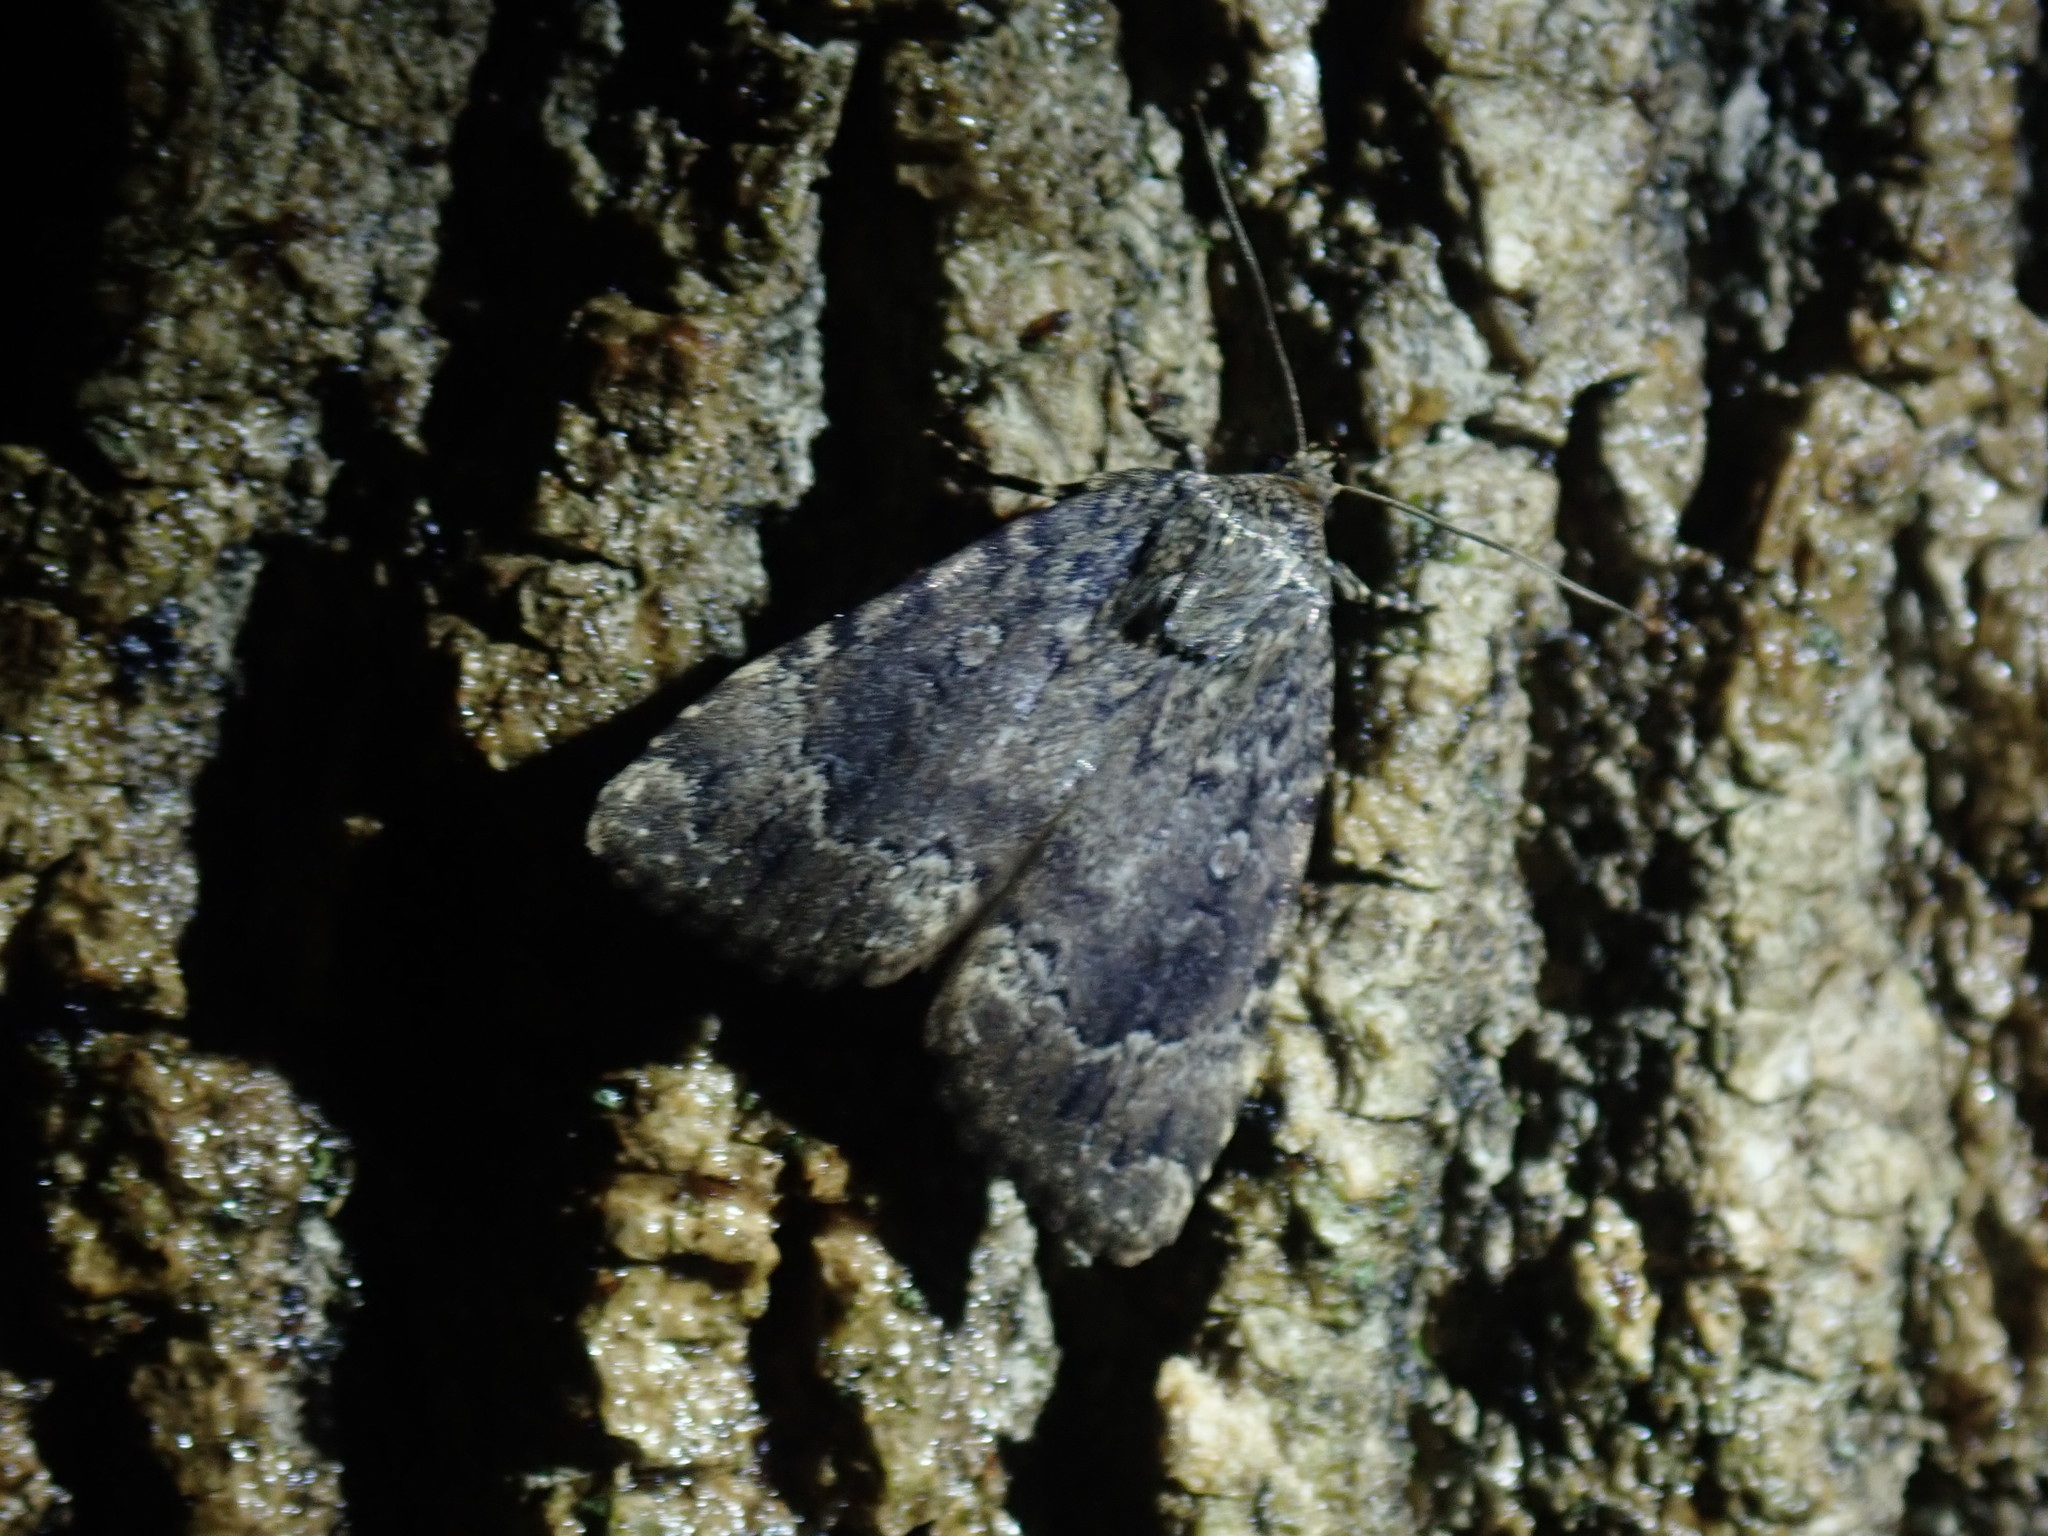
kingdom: Animalia
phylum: Arthropoda
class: Insecta
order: Lepidoptera
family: Noctuidae
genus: Amphipyra
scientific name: Amphipyra pyramidoides
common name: American copper underwing
